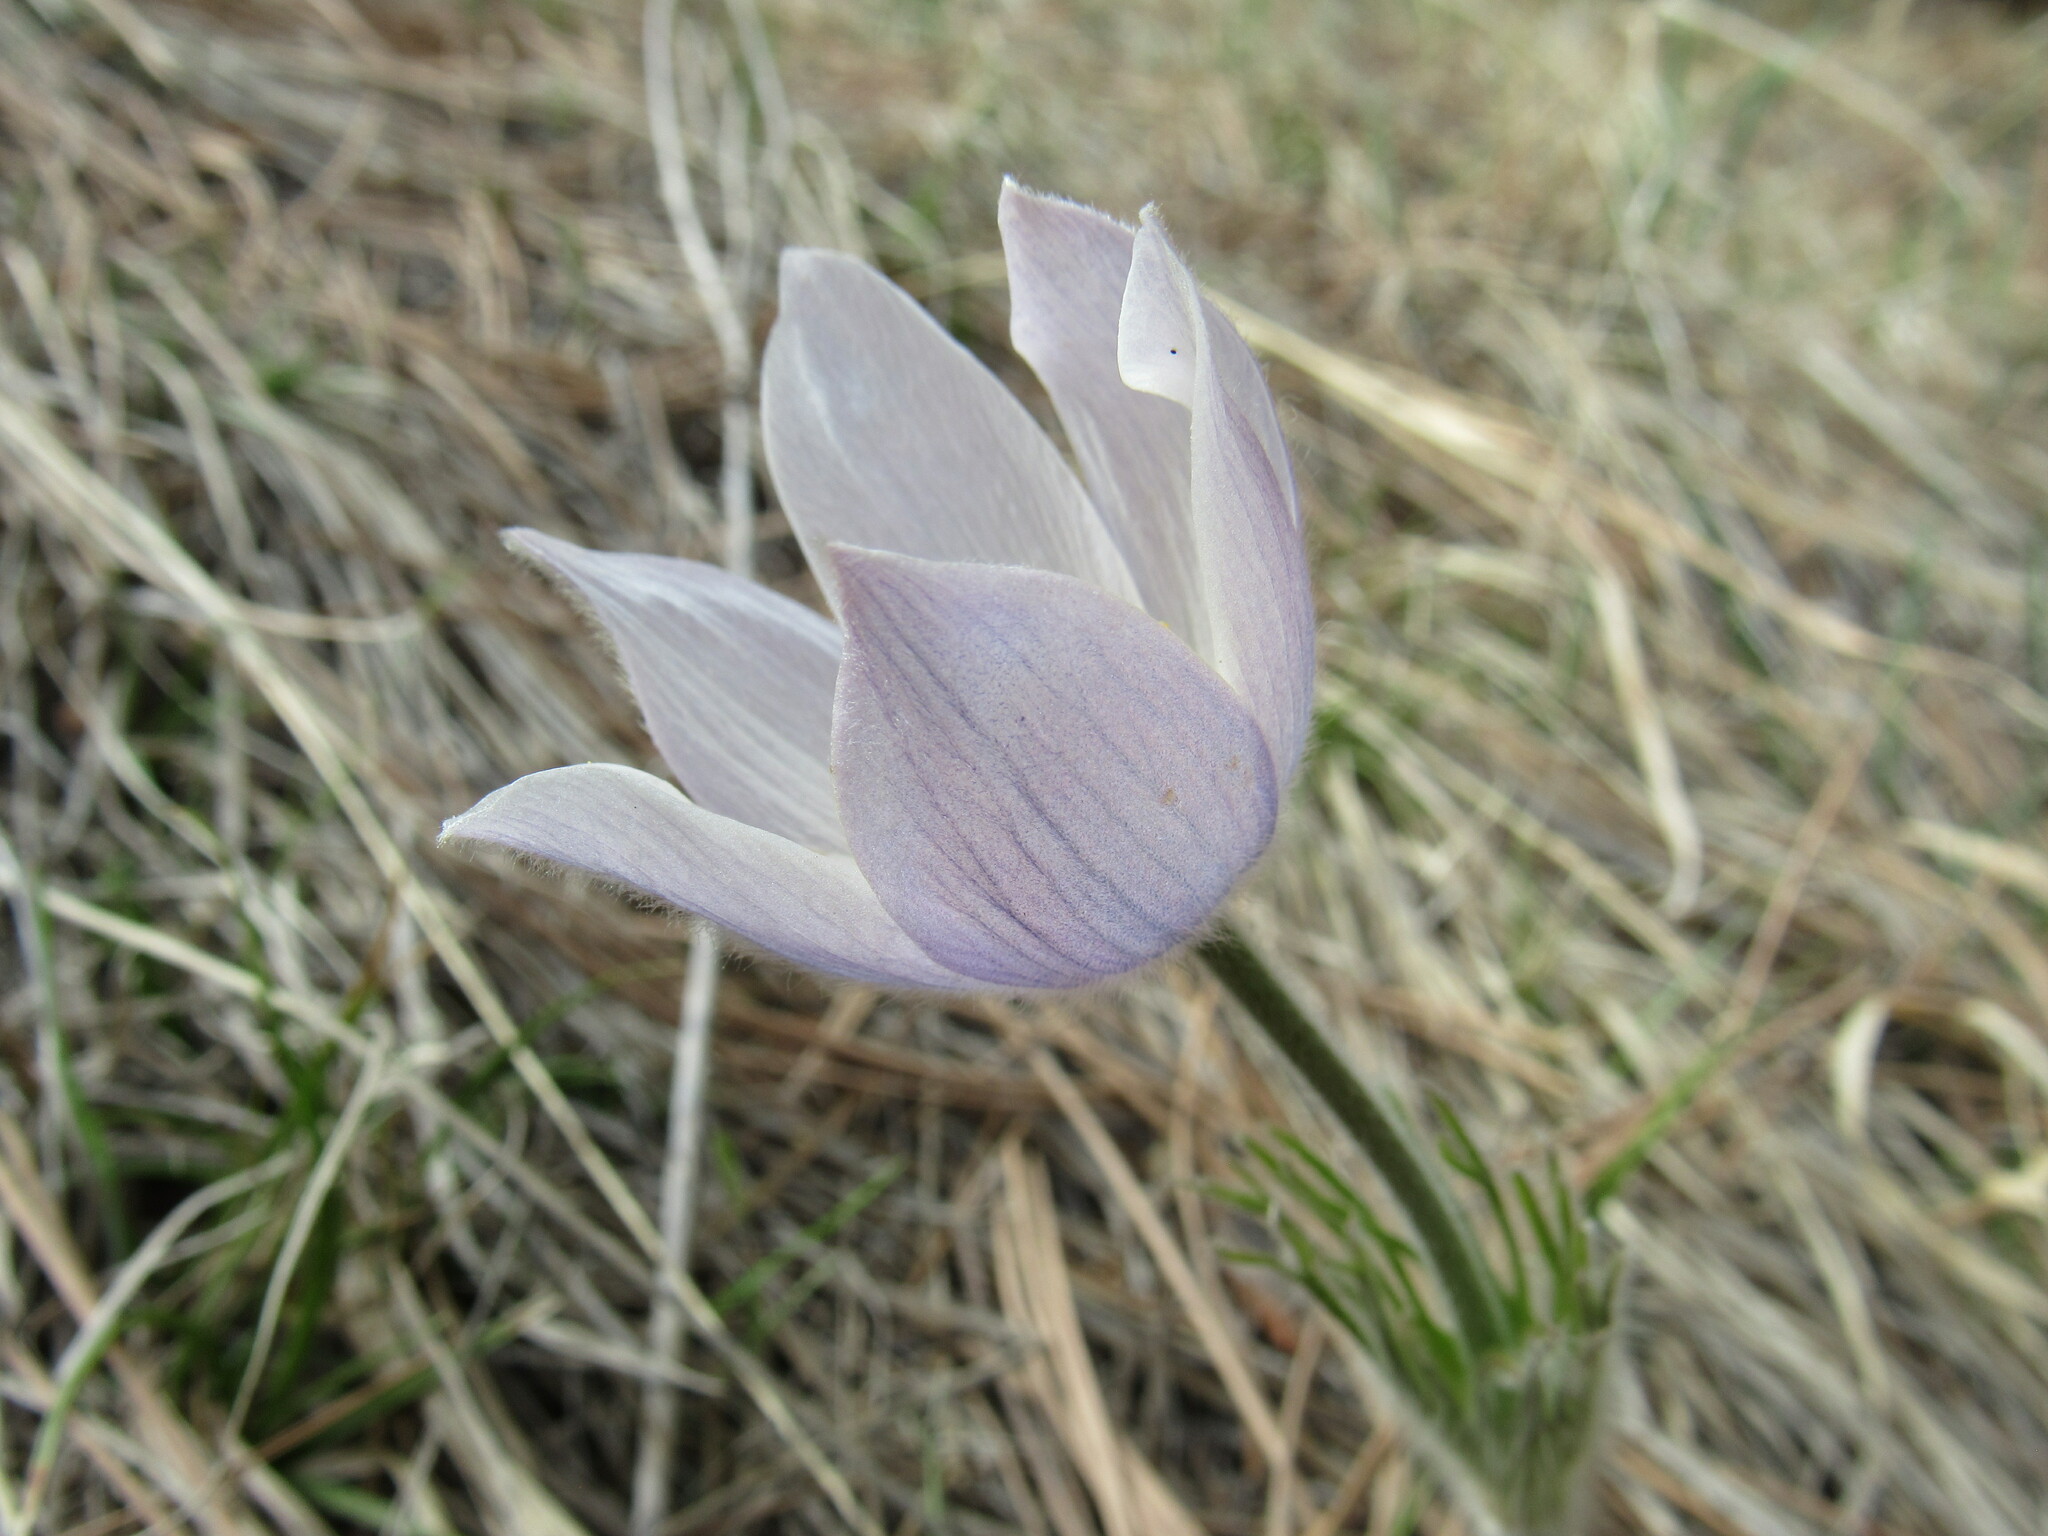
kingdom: Plantae
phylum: Tracheophyta
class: Magnoliopsida
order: Ranunculales
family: Ranunculaceae
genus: Pulsatilla
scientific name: Pulsatilla nuttalliana
